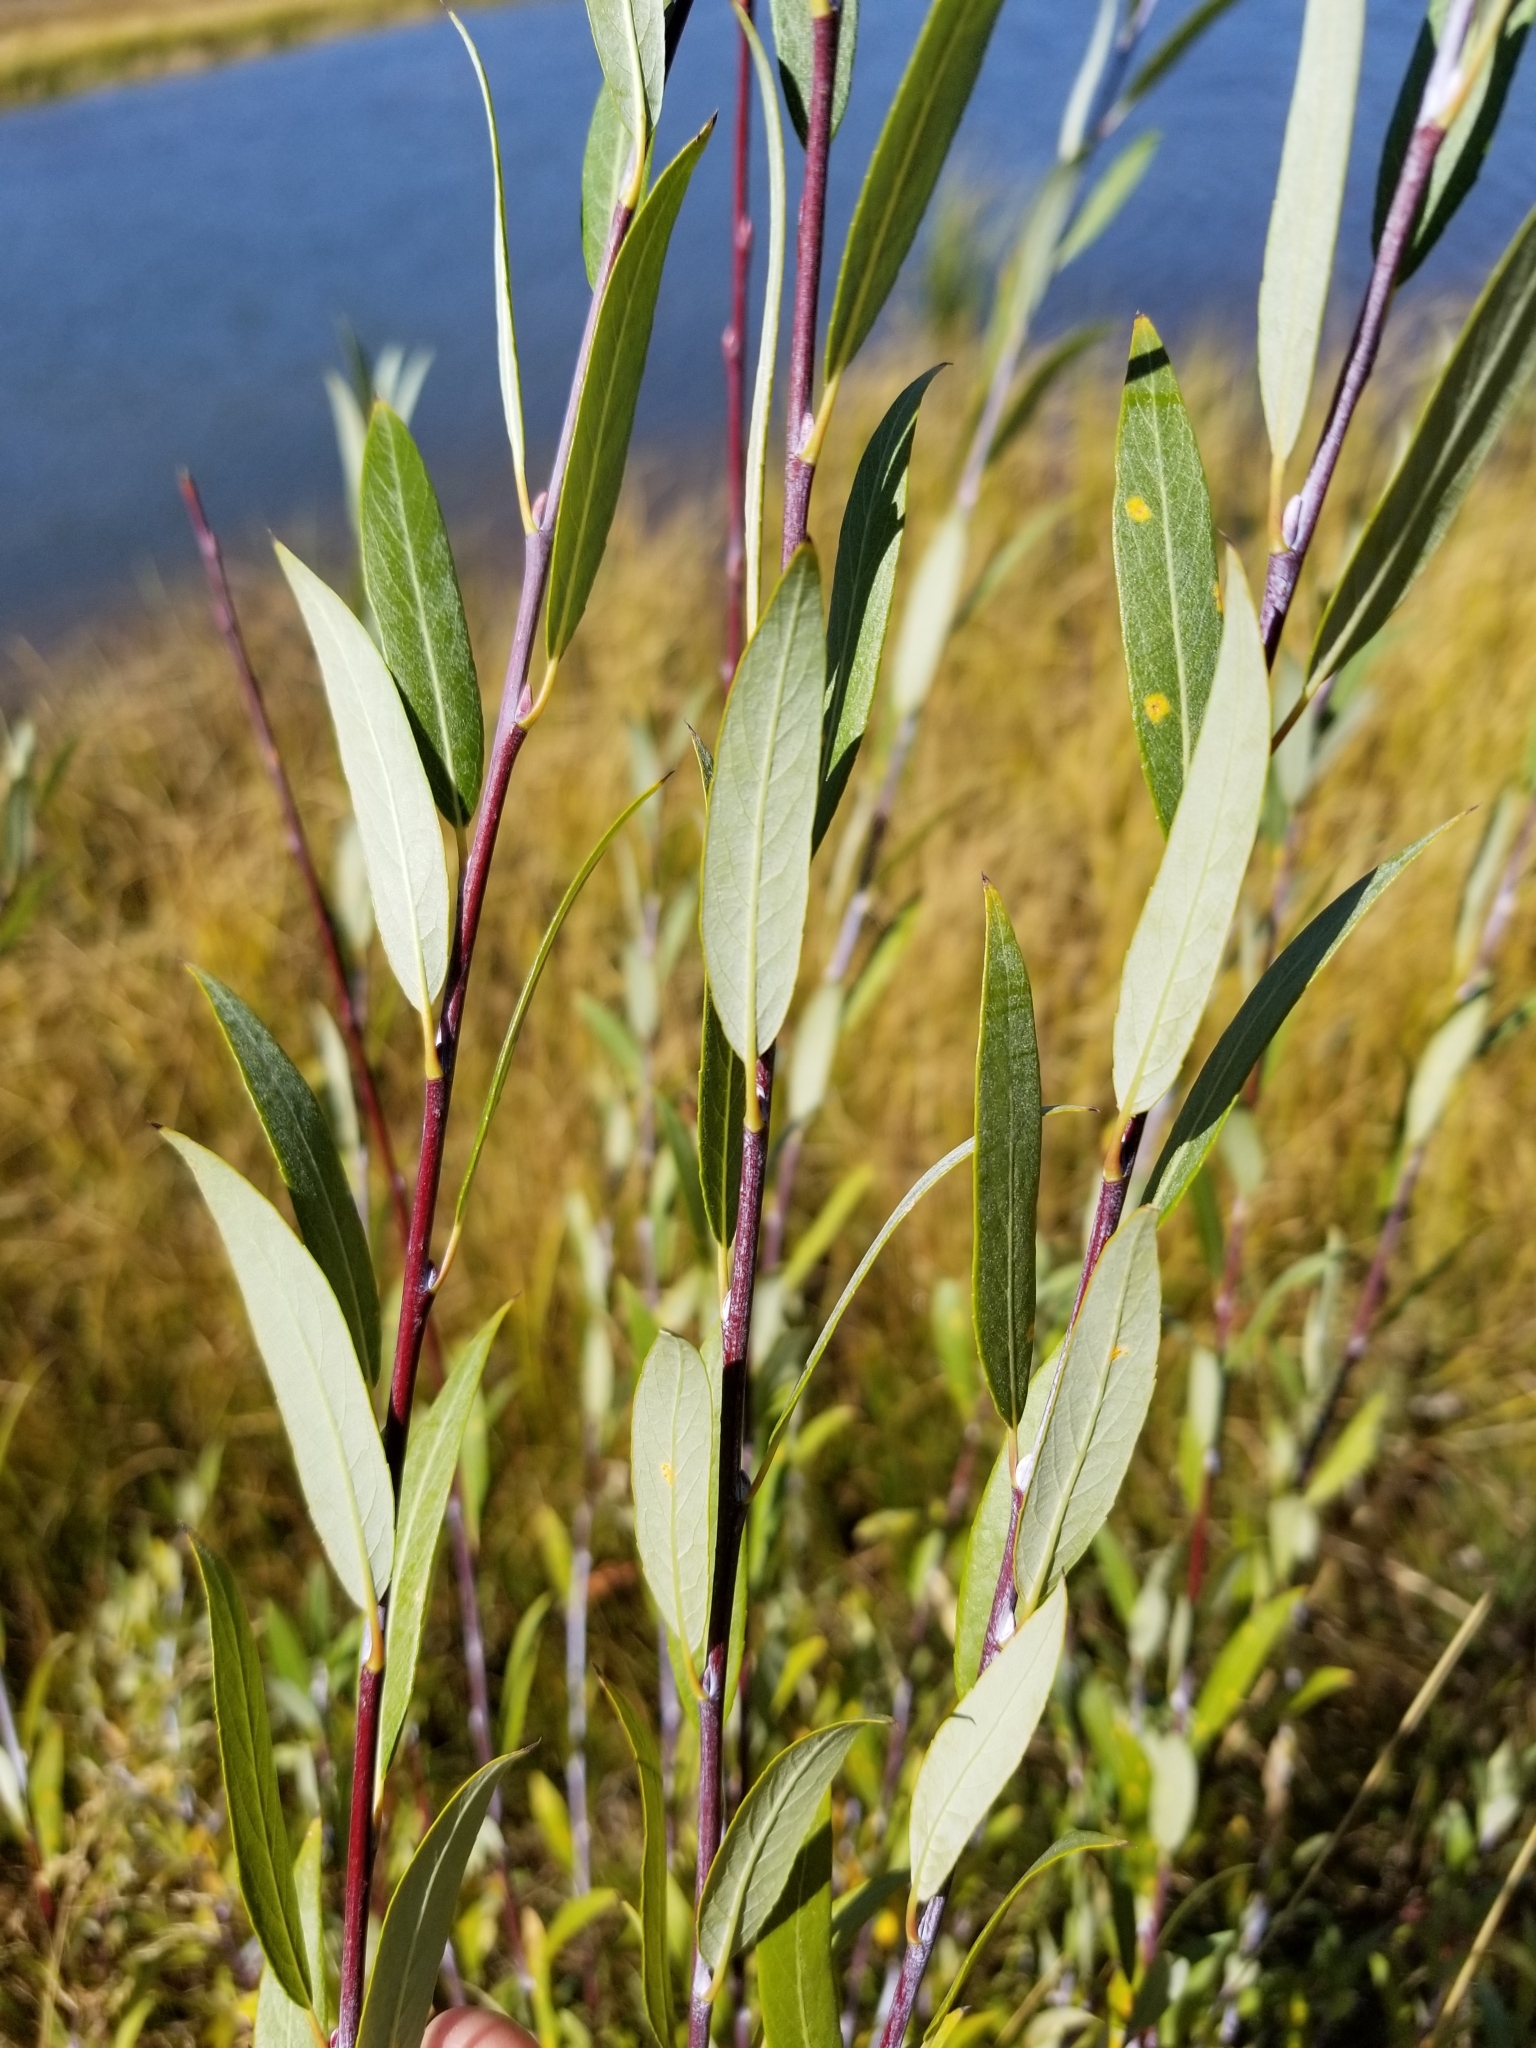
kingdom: Plantae
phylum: Tracheophyta
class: Magnoliopsida
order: Malpighiales
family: Salicaceae
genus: Salix
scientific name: Salix laevigata
